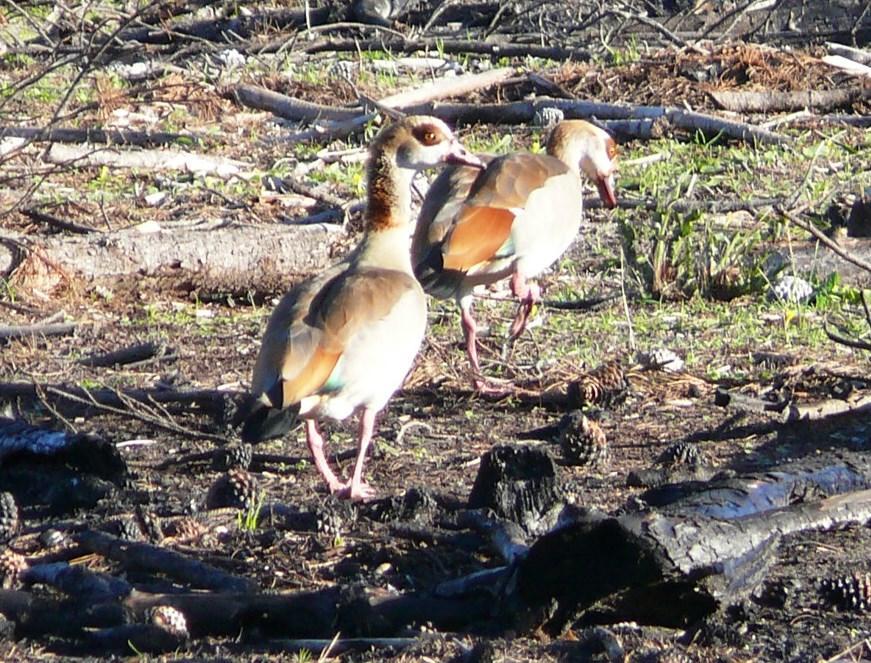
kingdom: Animalia
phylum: Chordata
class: Aves
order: Anseriformes
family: Anatidae
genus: Alopochen
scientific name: Alopochen aegyptiaca
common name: Egyptian goose
